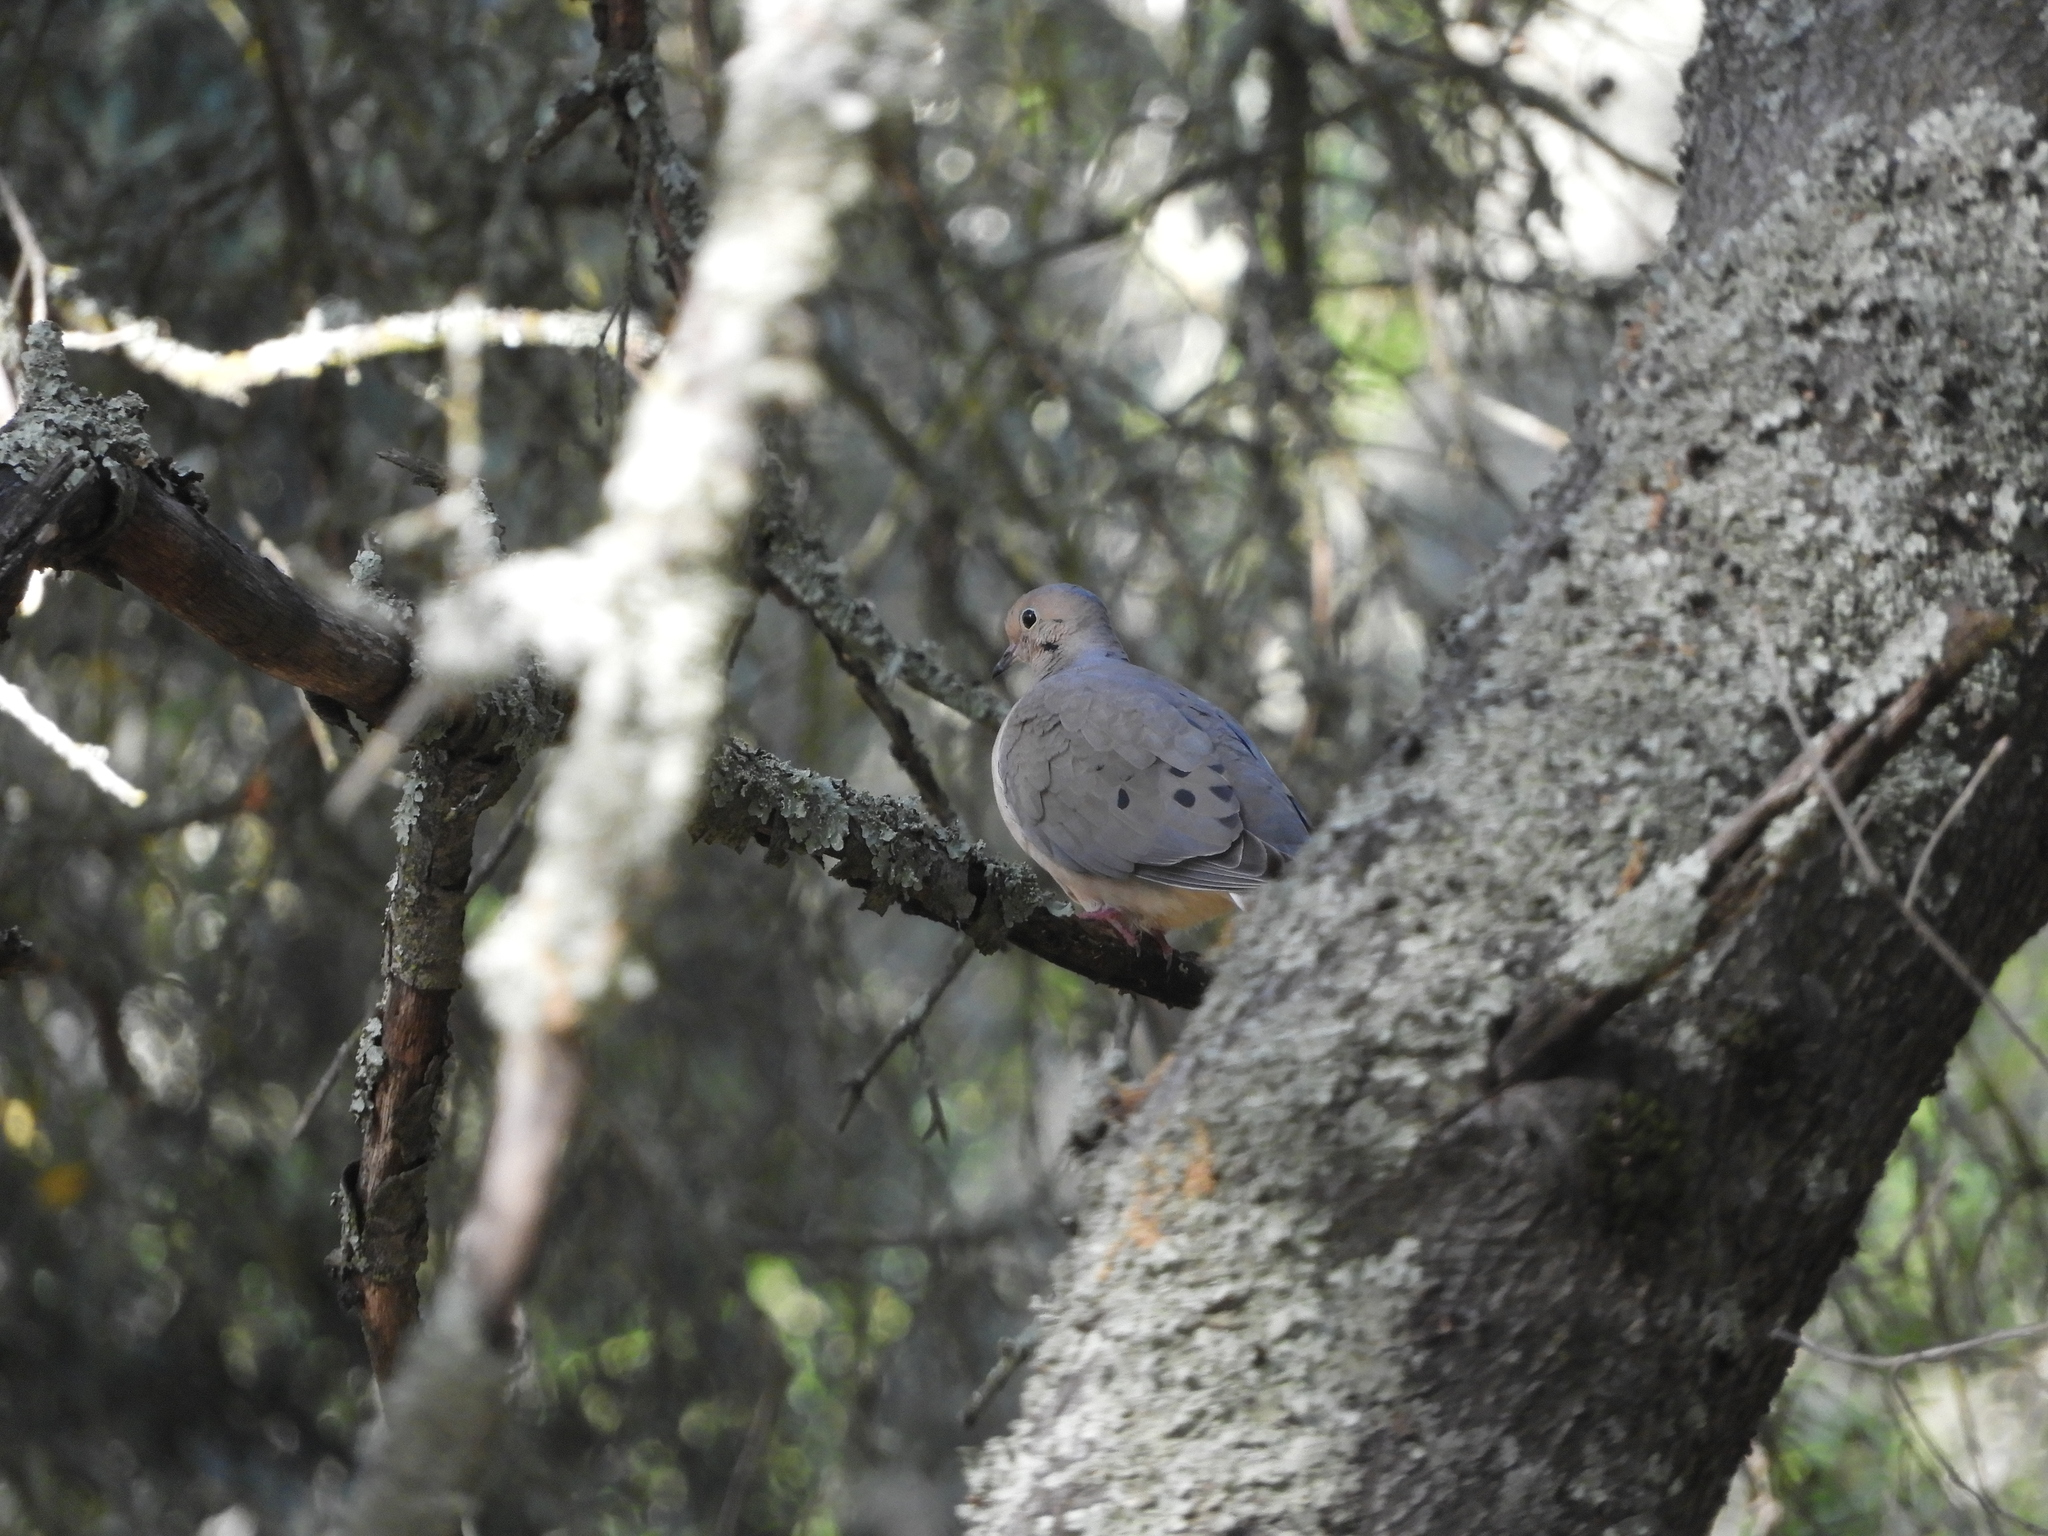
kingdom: Animalia
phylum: Chordata
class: Aves
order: Columbiformes
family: Columbidae
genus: Zenaida
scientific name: Zenaida macroura
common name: Mourning dove
